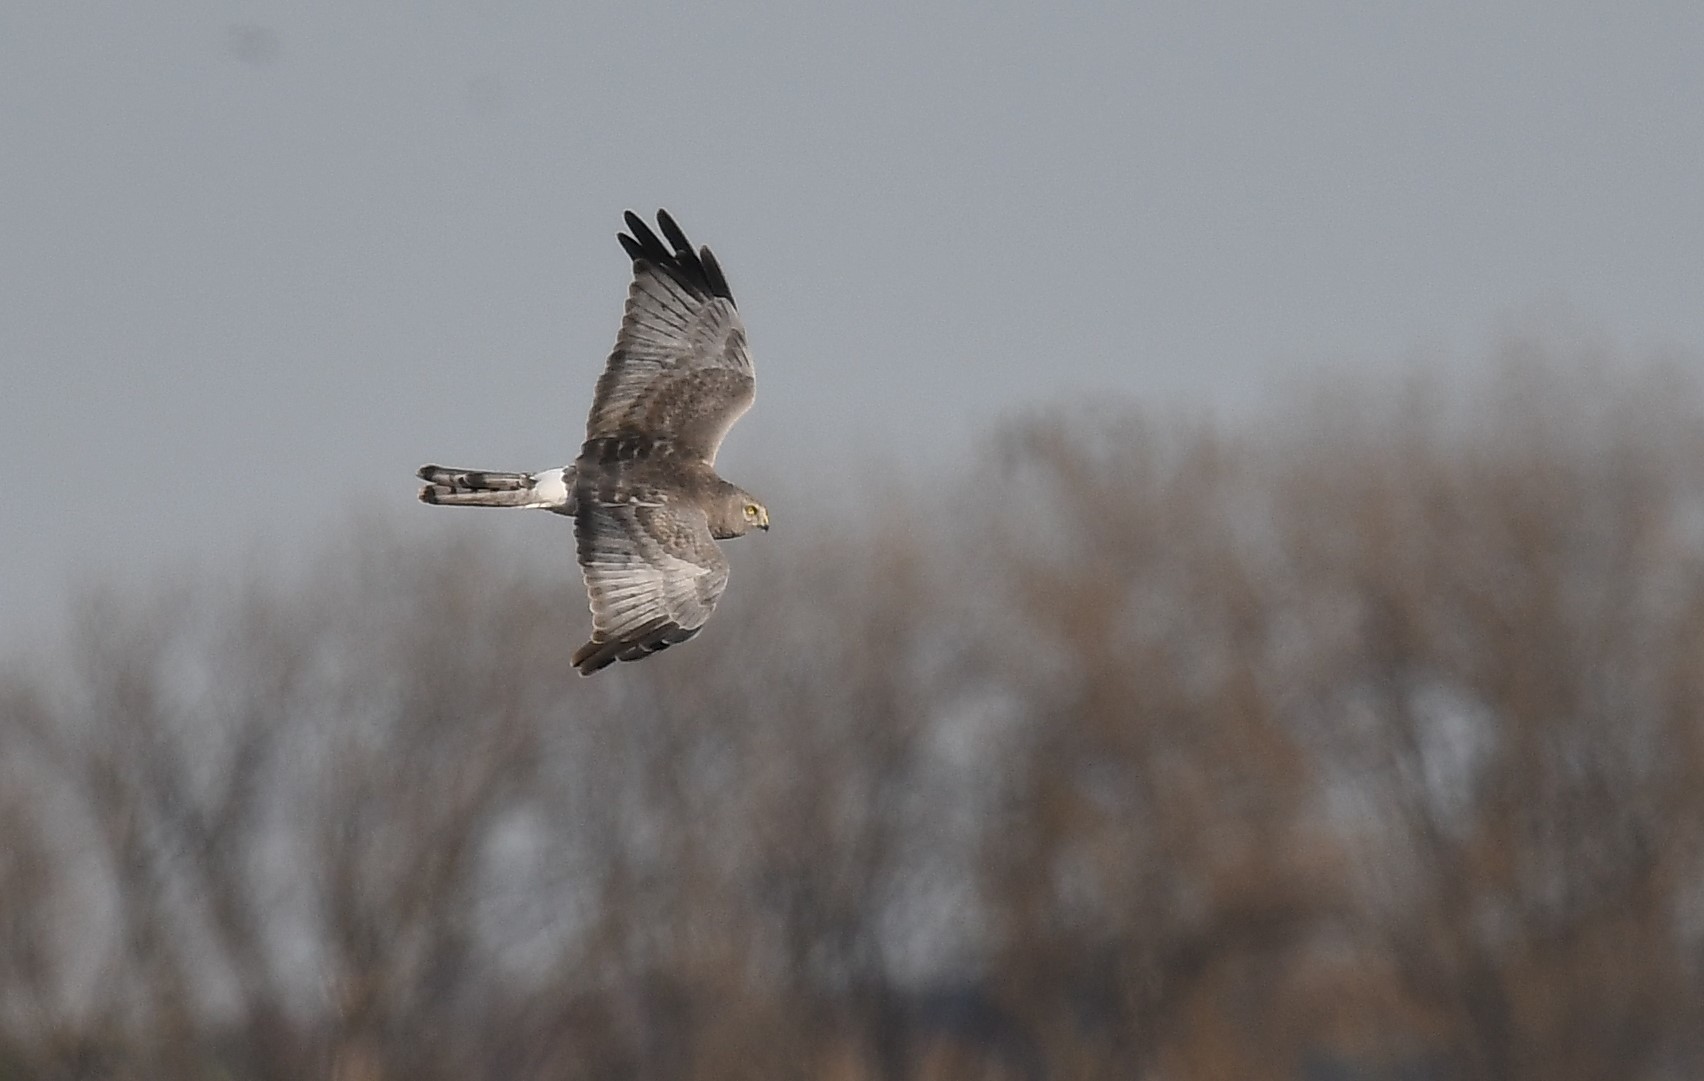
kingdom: Animalia
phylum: Chordata
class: Aves
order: Accipitriformes
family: Accipitridae
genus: Circus
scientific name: Circus cyaneus
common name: Hen harrier
